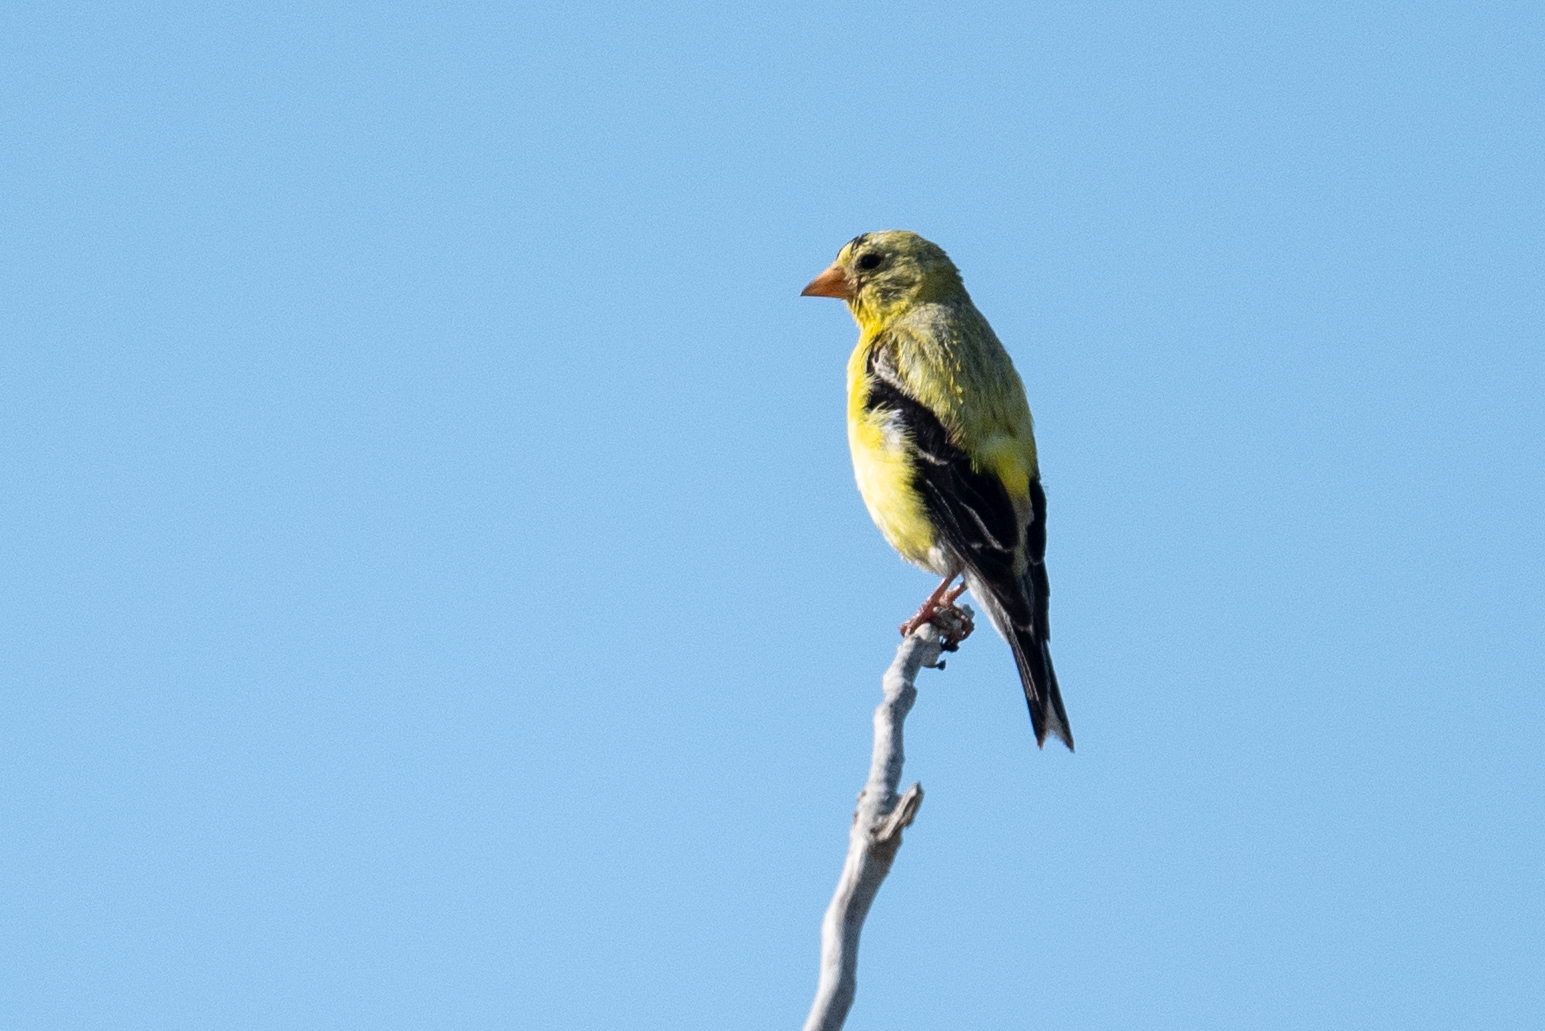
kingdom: Animalia
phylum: Chordata
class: Aves
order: Passeriformes
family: Fringillidae
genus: Spinus
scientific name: Spinus tristis
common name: American goldfinch
